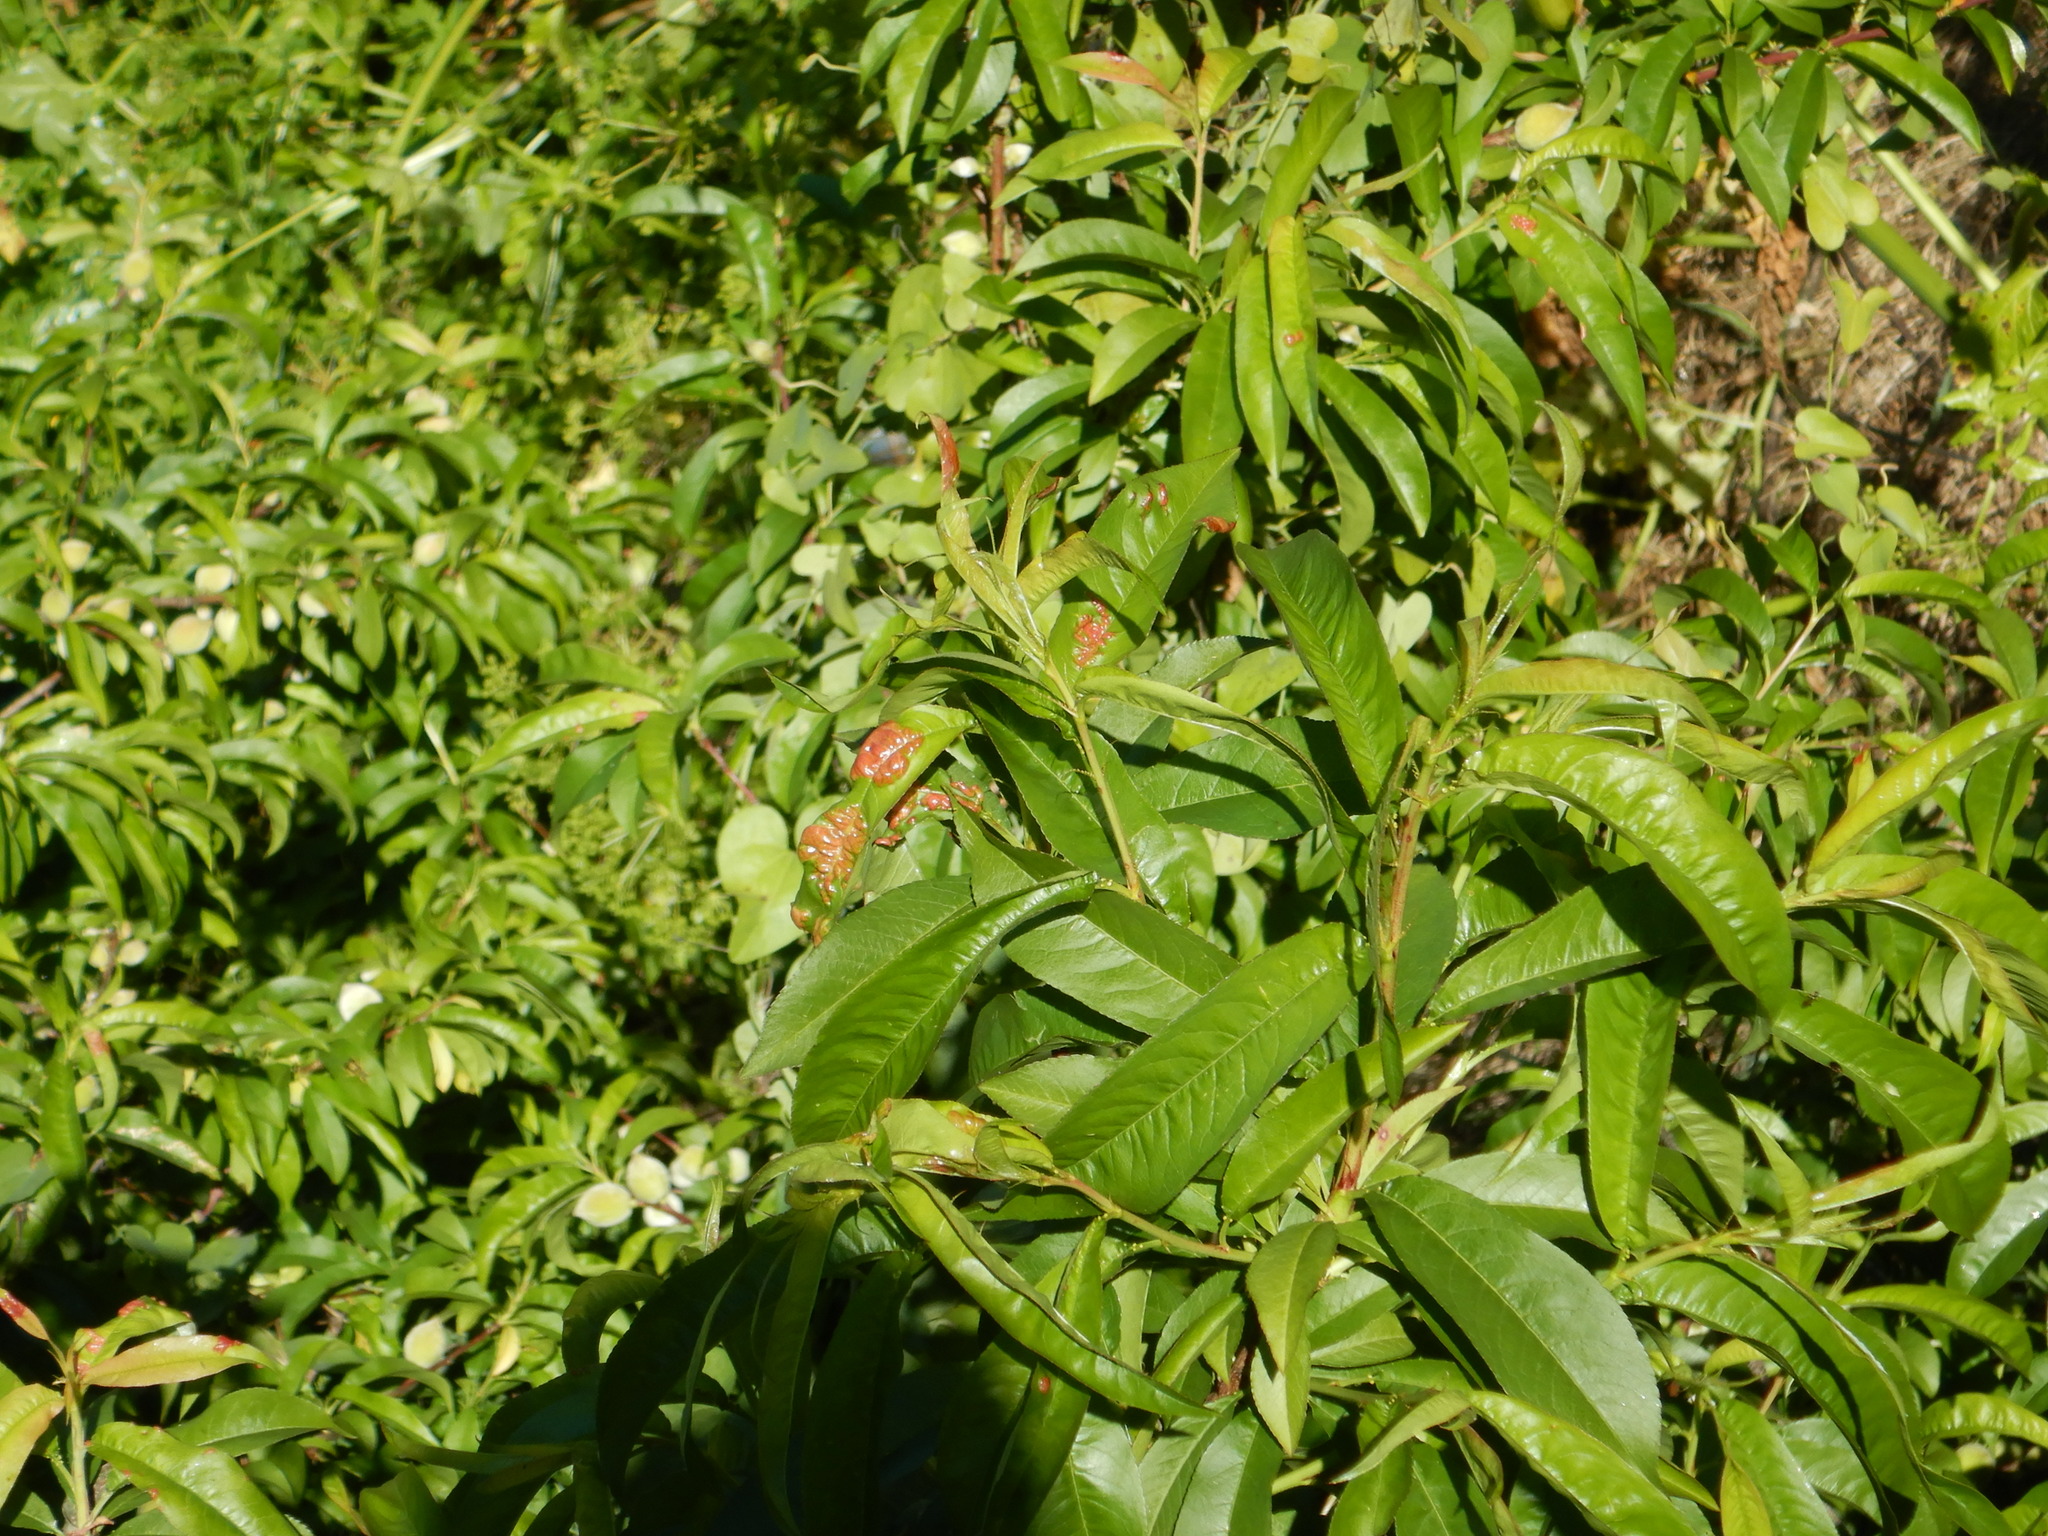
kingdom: Fungi
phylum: Ascomycota
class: Taphrinomycetes
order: Taphrinales
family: Taphrinaceae
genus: Taphrina
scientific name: Taphrina deformans
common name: Peach leaf curl
